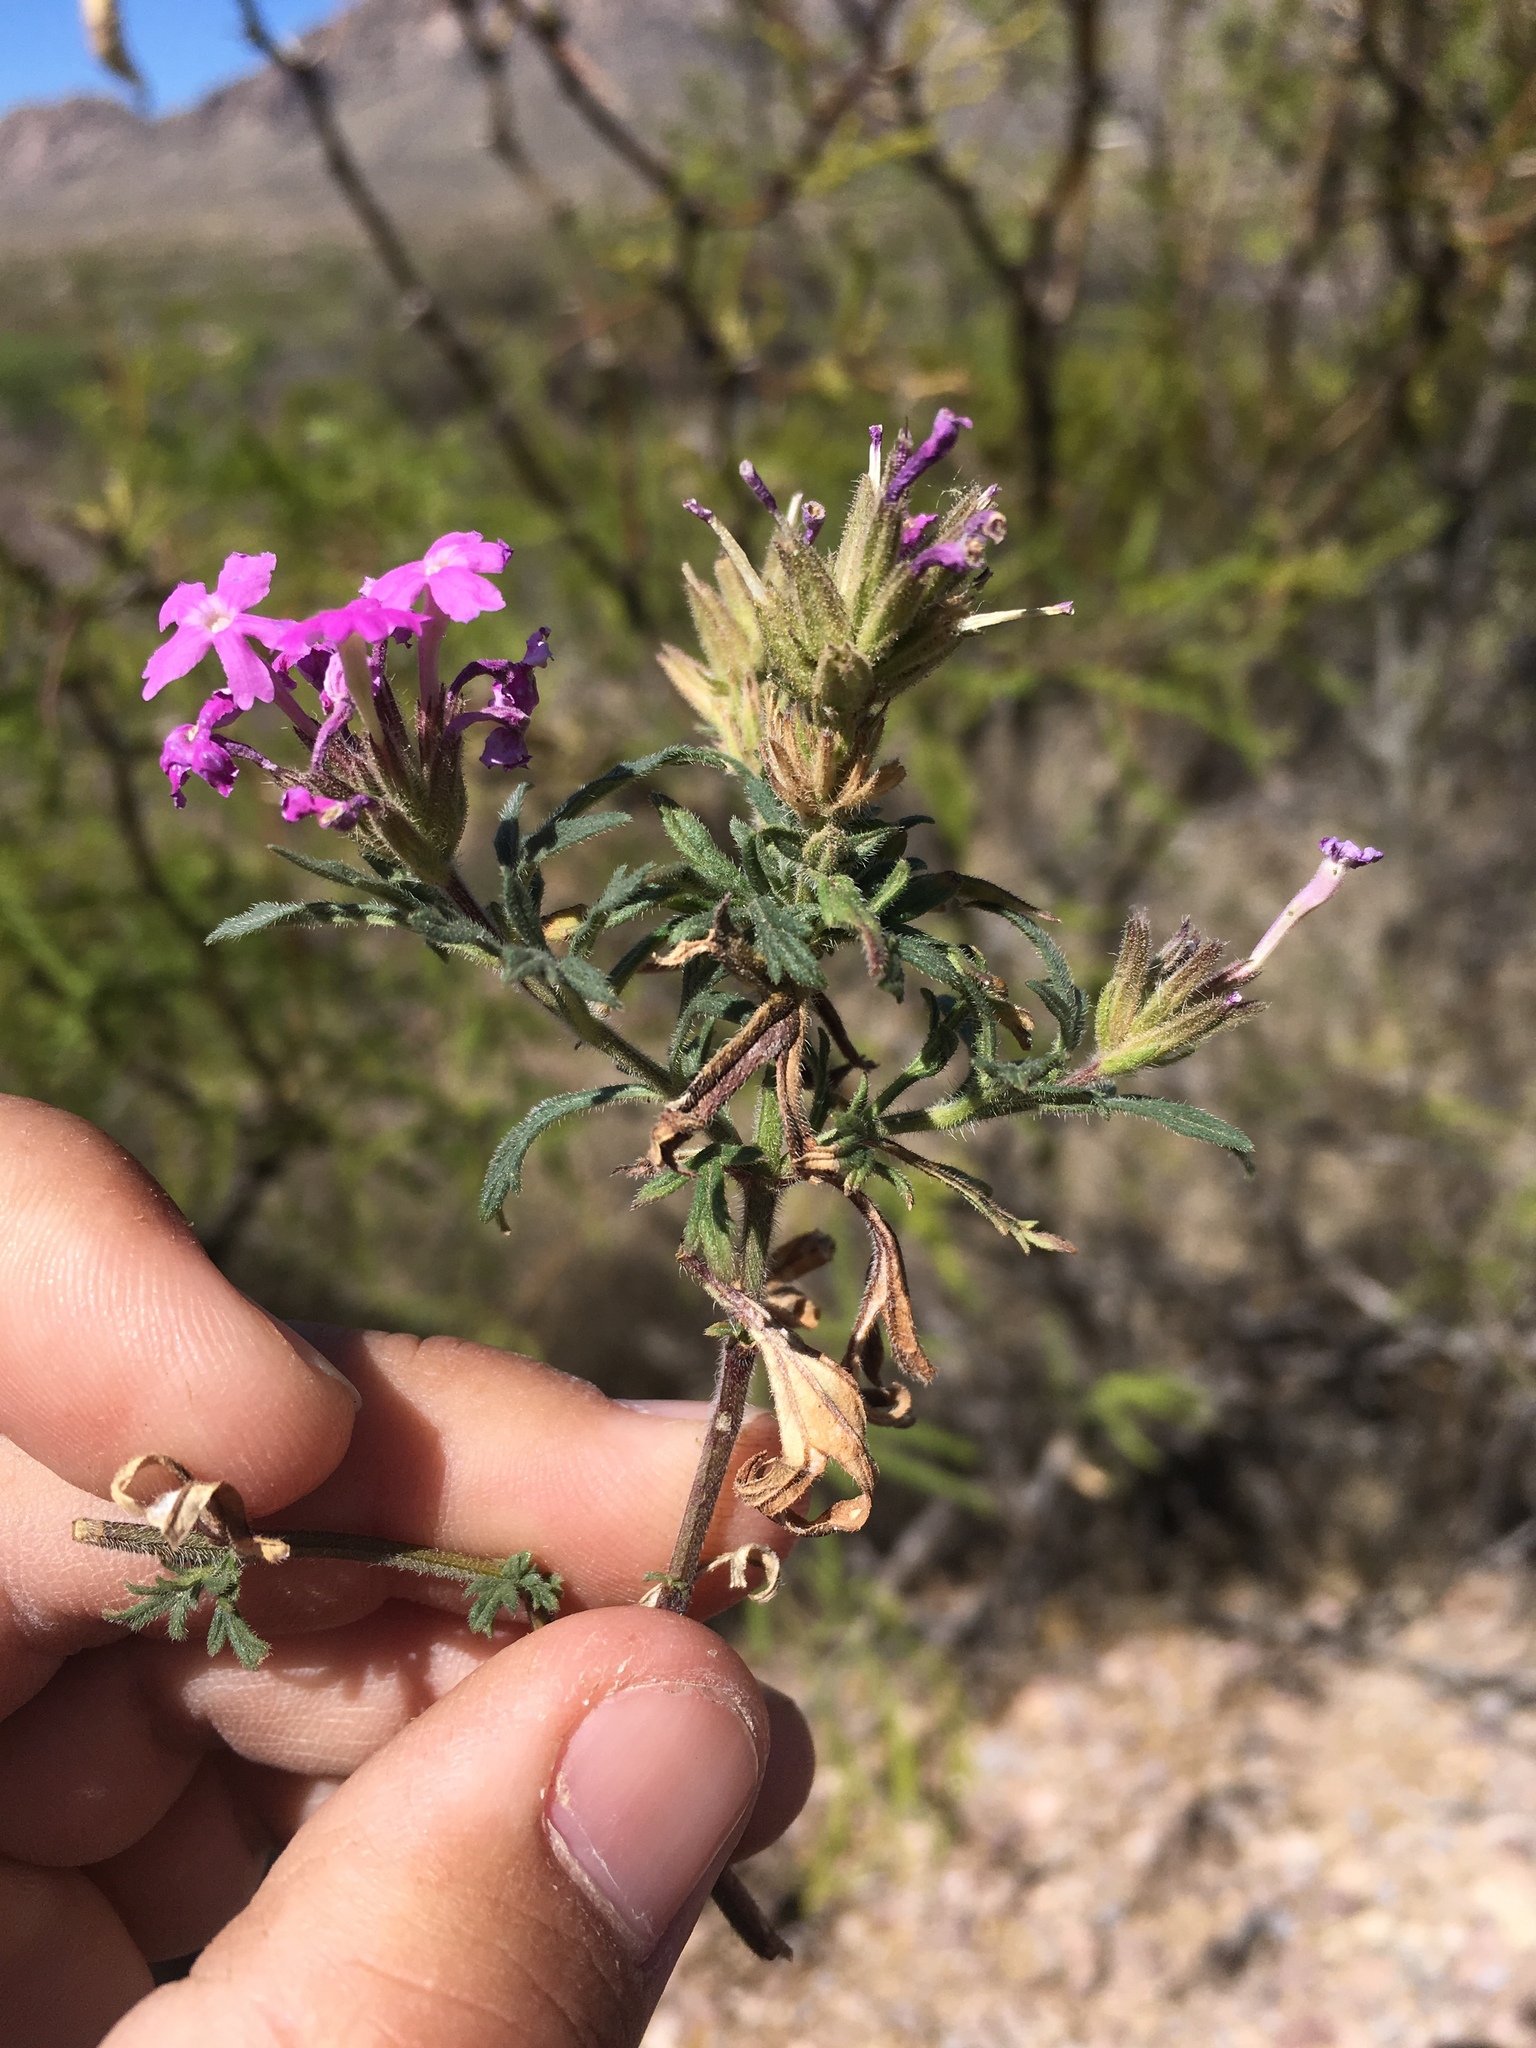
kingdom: Plantae
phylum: Tracheophyta
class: Magnoliopsida
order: Lamiales
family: Verbenaceae
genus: Verbena
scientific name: Verbena bipinnatifida
